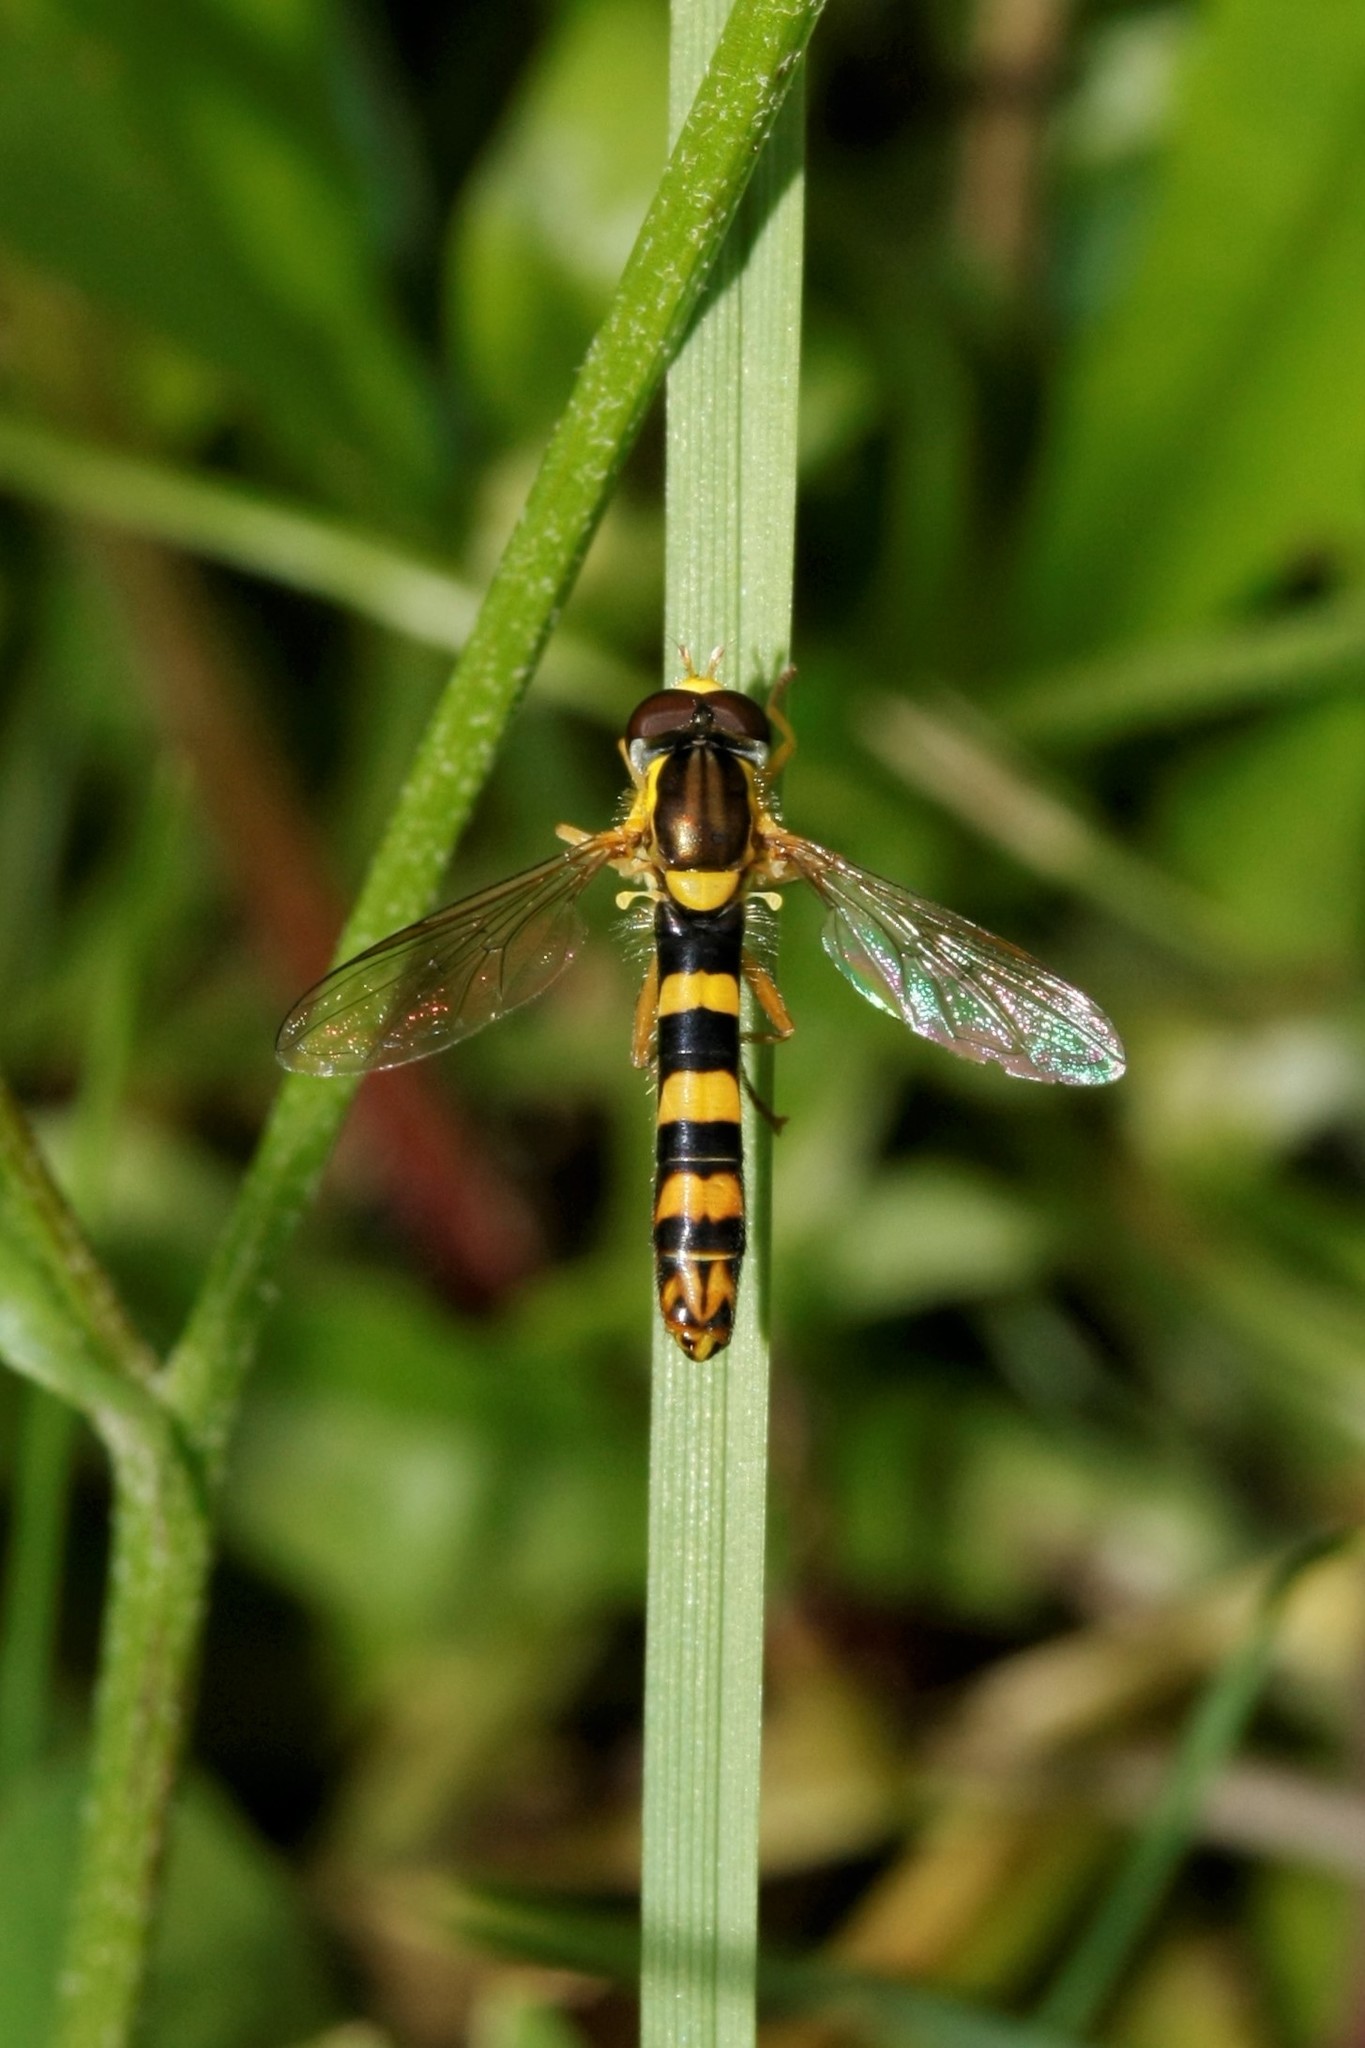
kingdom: Animalia
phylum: Arthropoda
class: Insecta
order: Diptera
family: Syrphidae
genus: Sphaerophoria
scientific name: Sphaerophoria scripta
